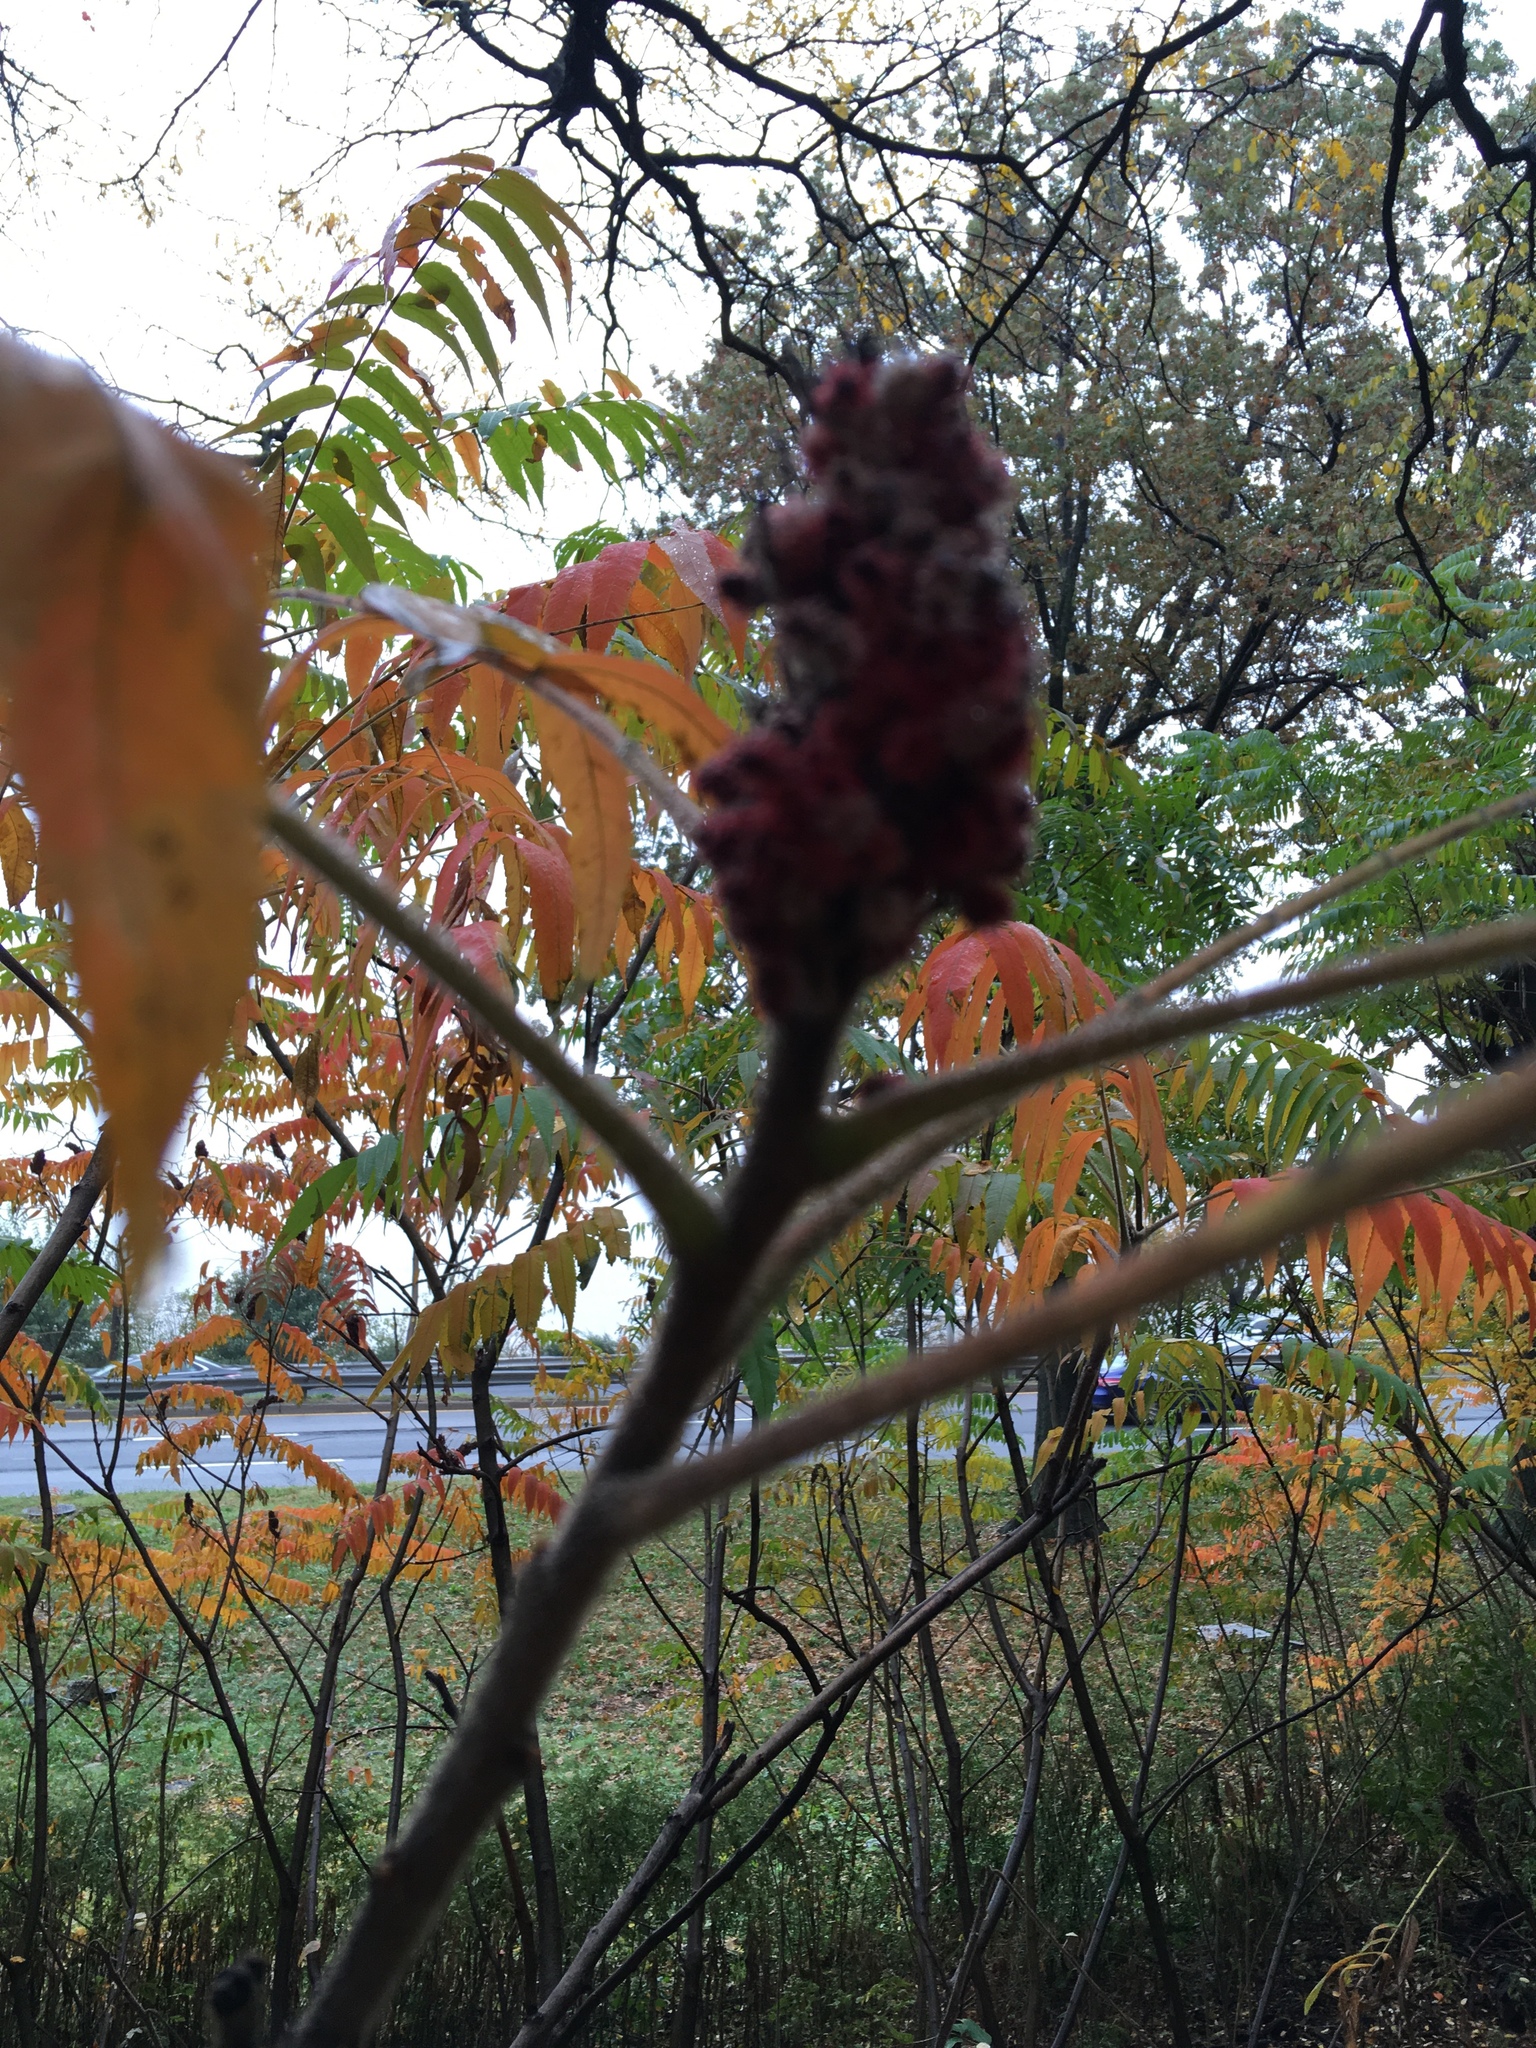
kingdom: Plantae
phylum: Tracheophyta
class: Magnoliopsida
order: Sapindales
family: Anacardiaceae
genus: Rhus
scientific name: Rhus typhina
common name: Staghorn sumac
